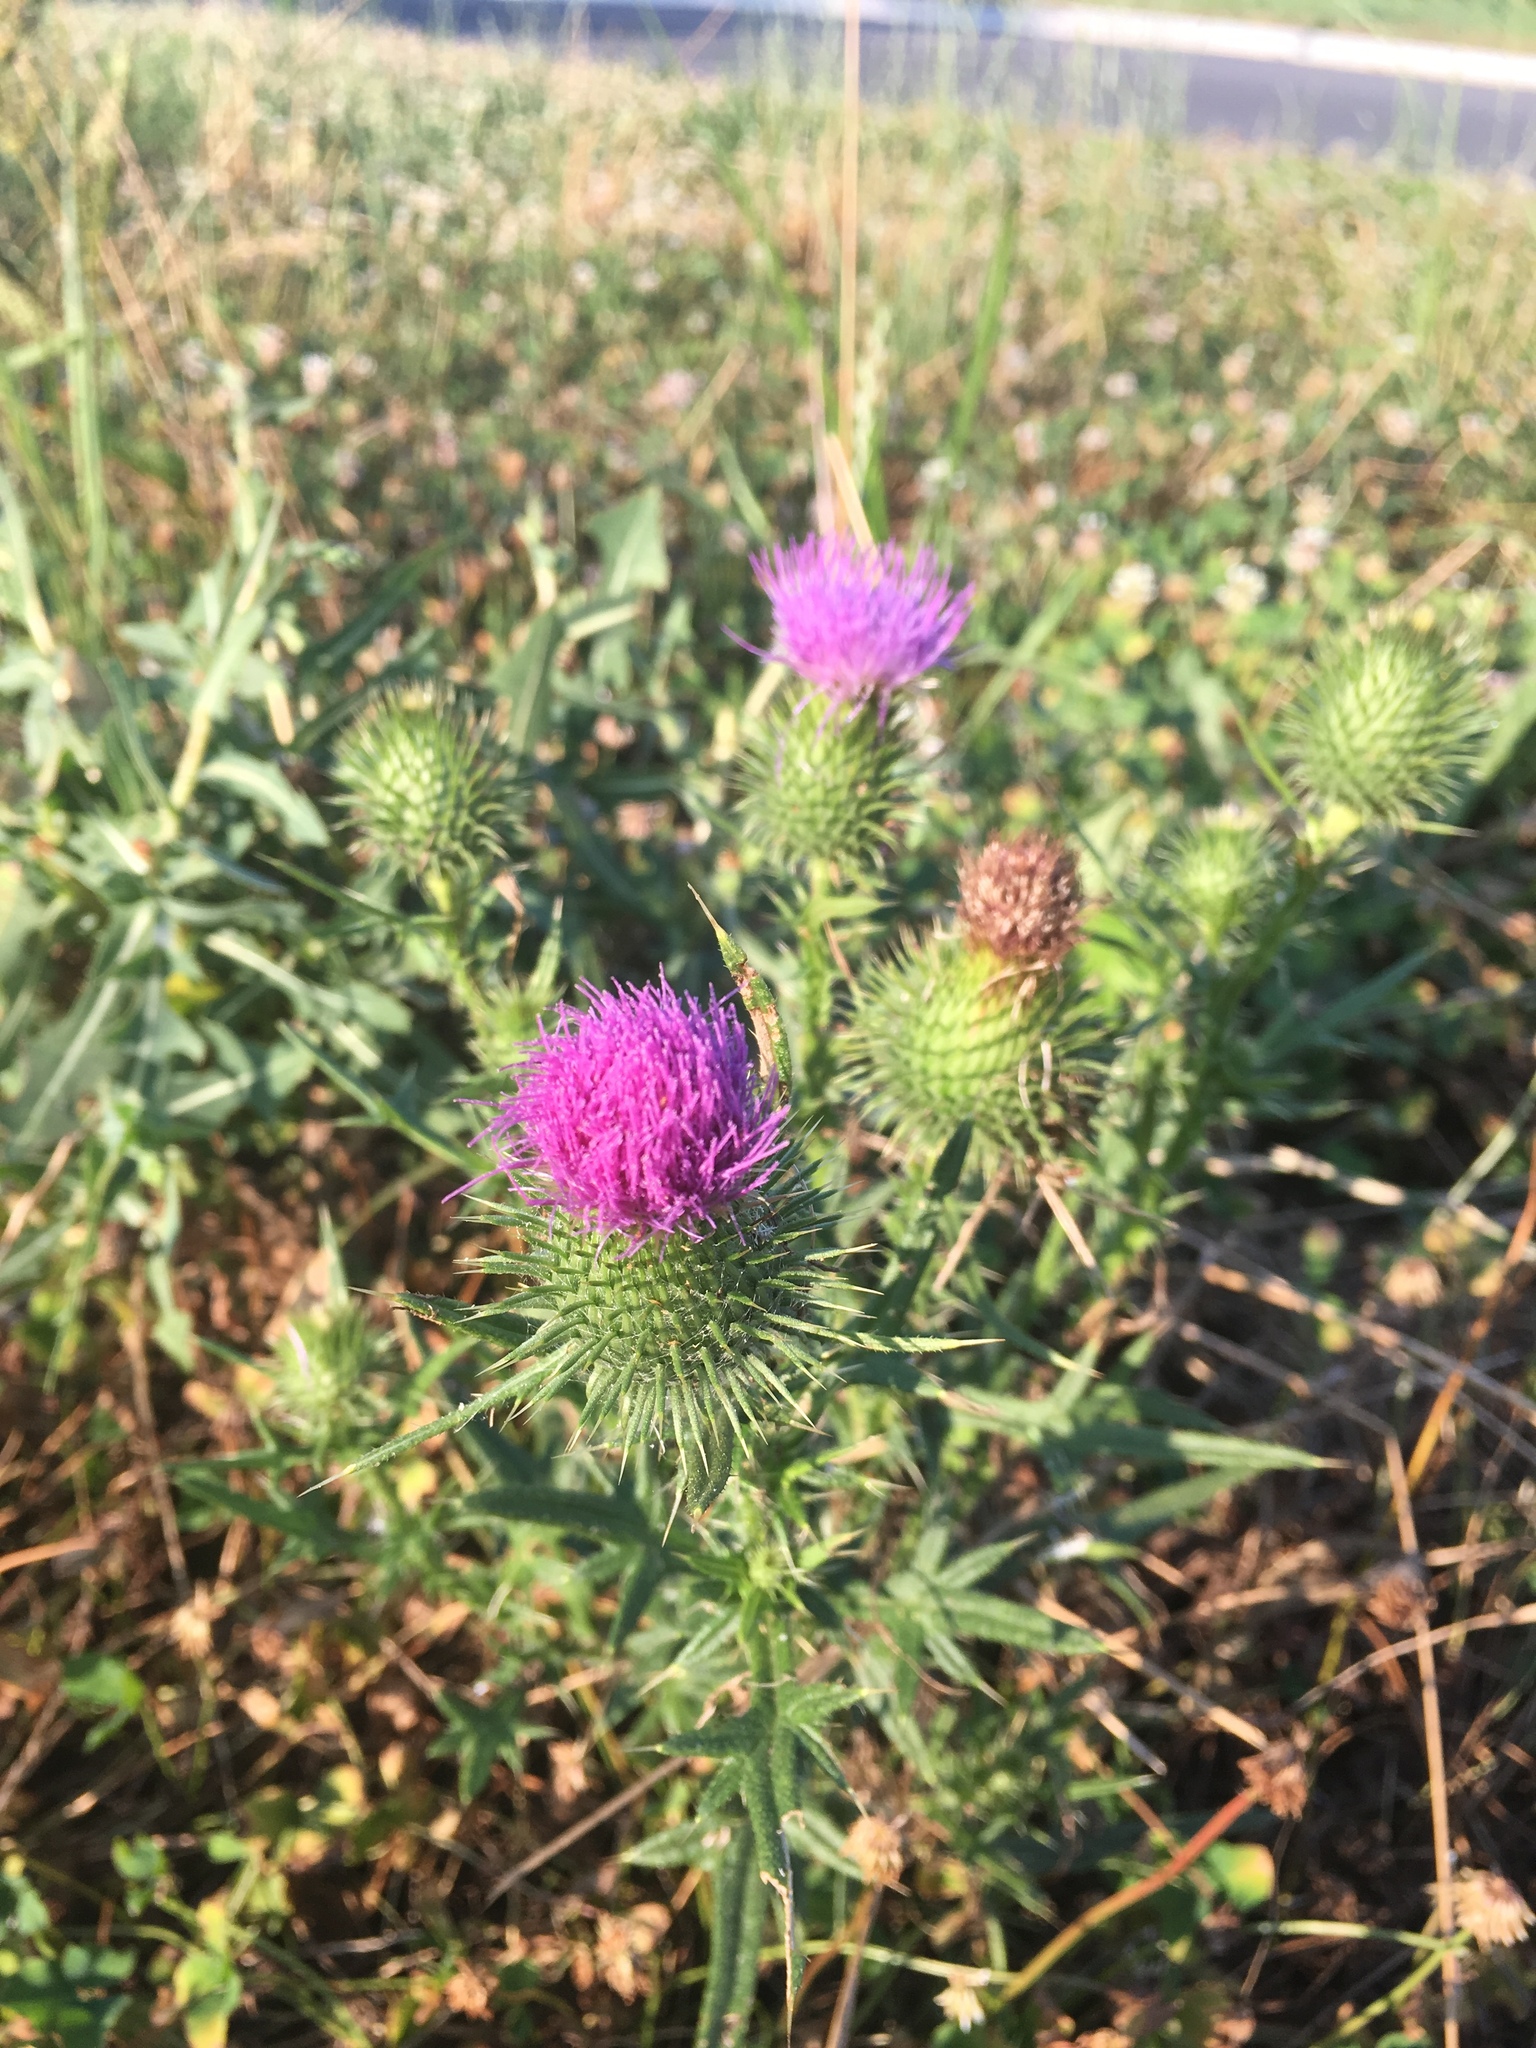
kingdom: Plantae
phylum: Tracheophyta
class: Magnoliopsida
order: Asterales
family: Asteraceae
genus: Cirsium
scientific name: Cirsium vulgare
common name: Bull thistle
